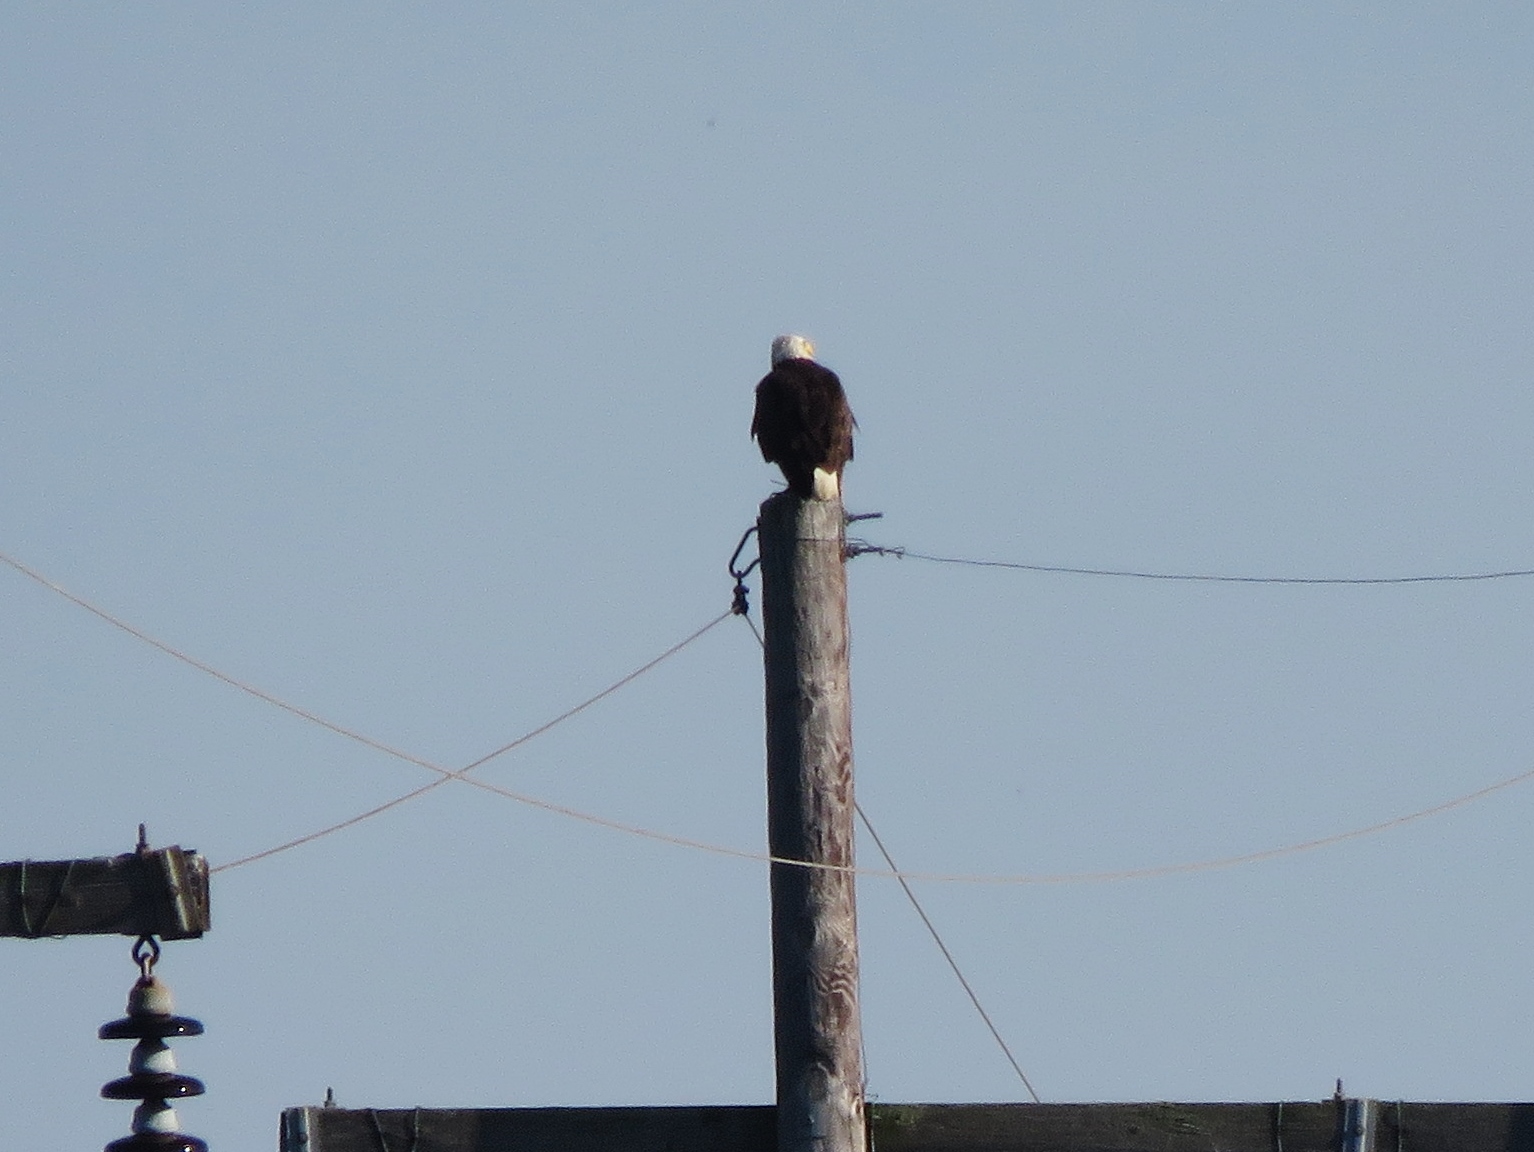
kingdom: Animalia
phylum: Chordata
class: Aves
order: Accipitriformes
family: Accipitridae
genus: Haliaeetus
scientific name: Haliaeetus leucocephalus
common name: Bald eagle
